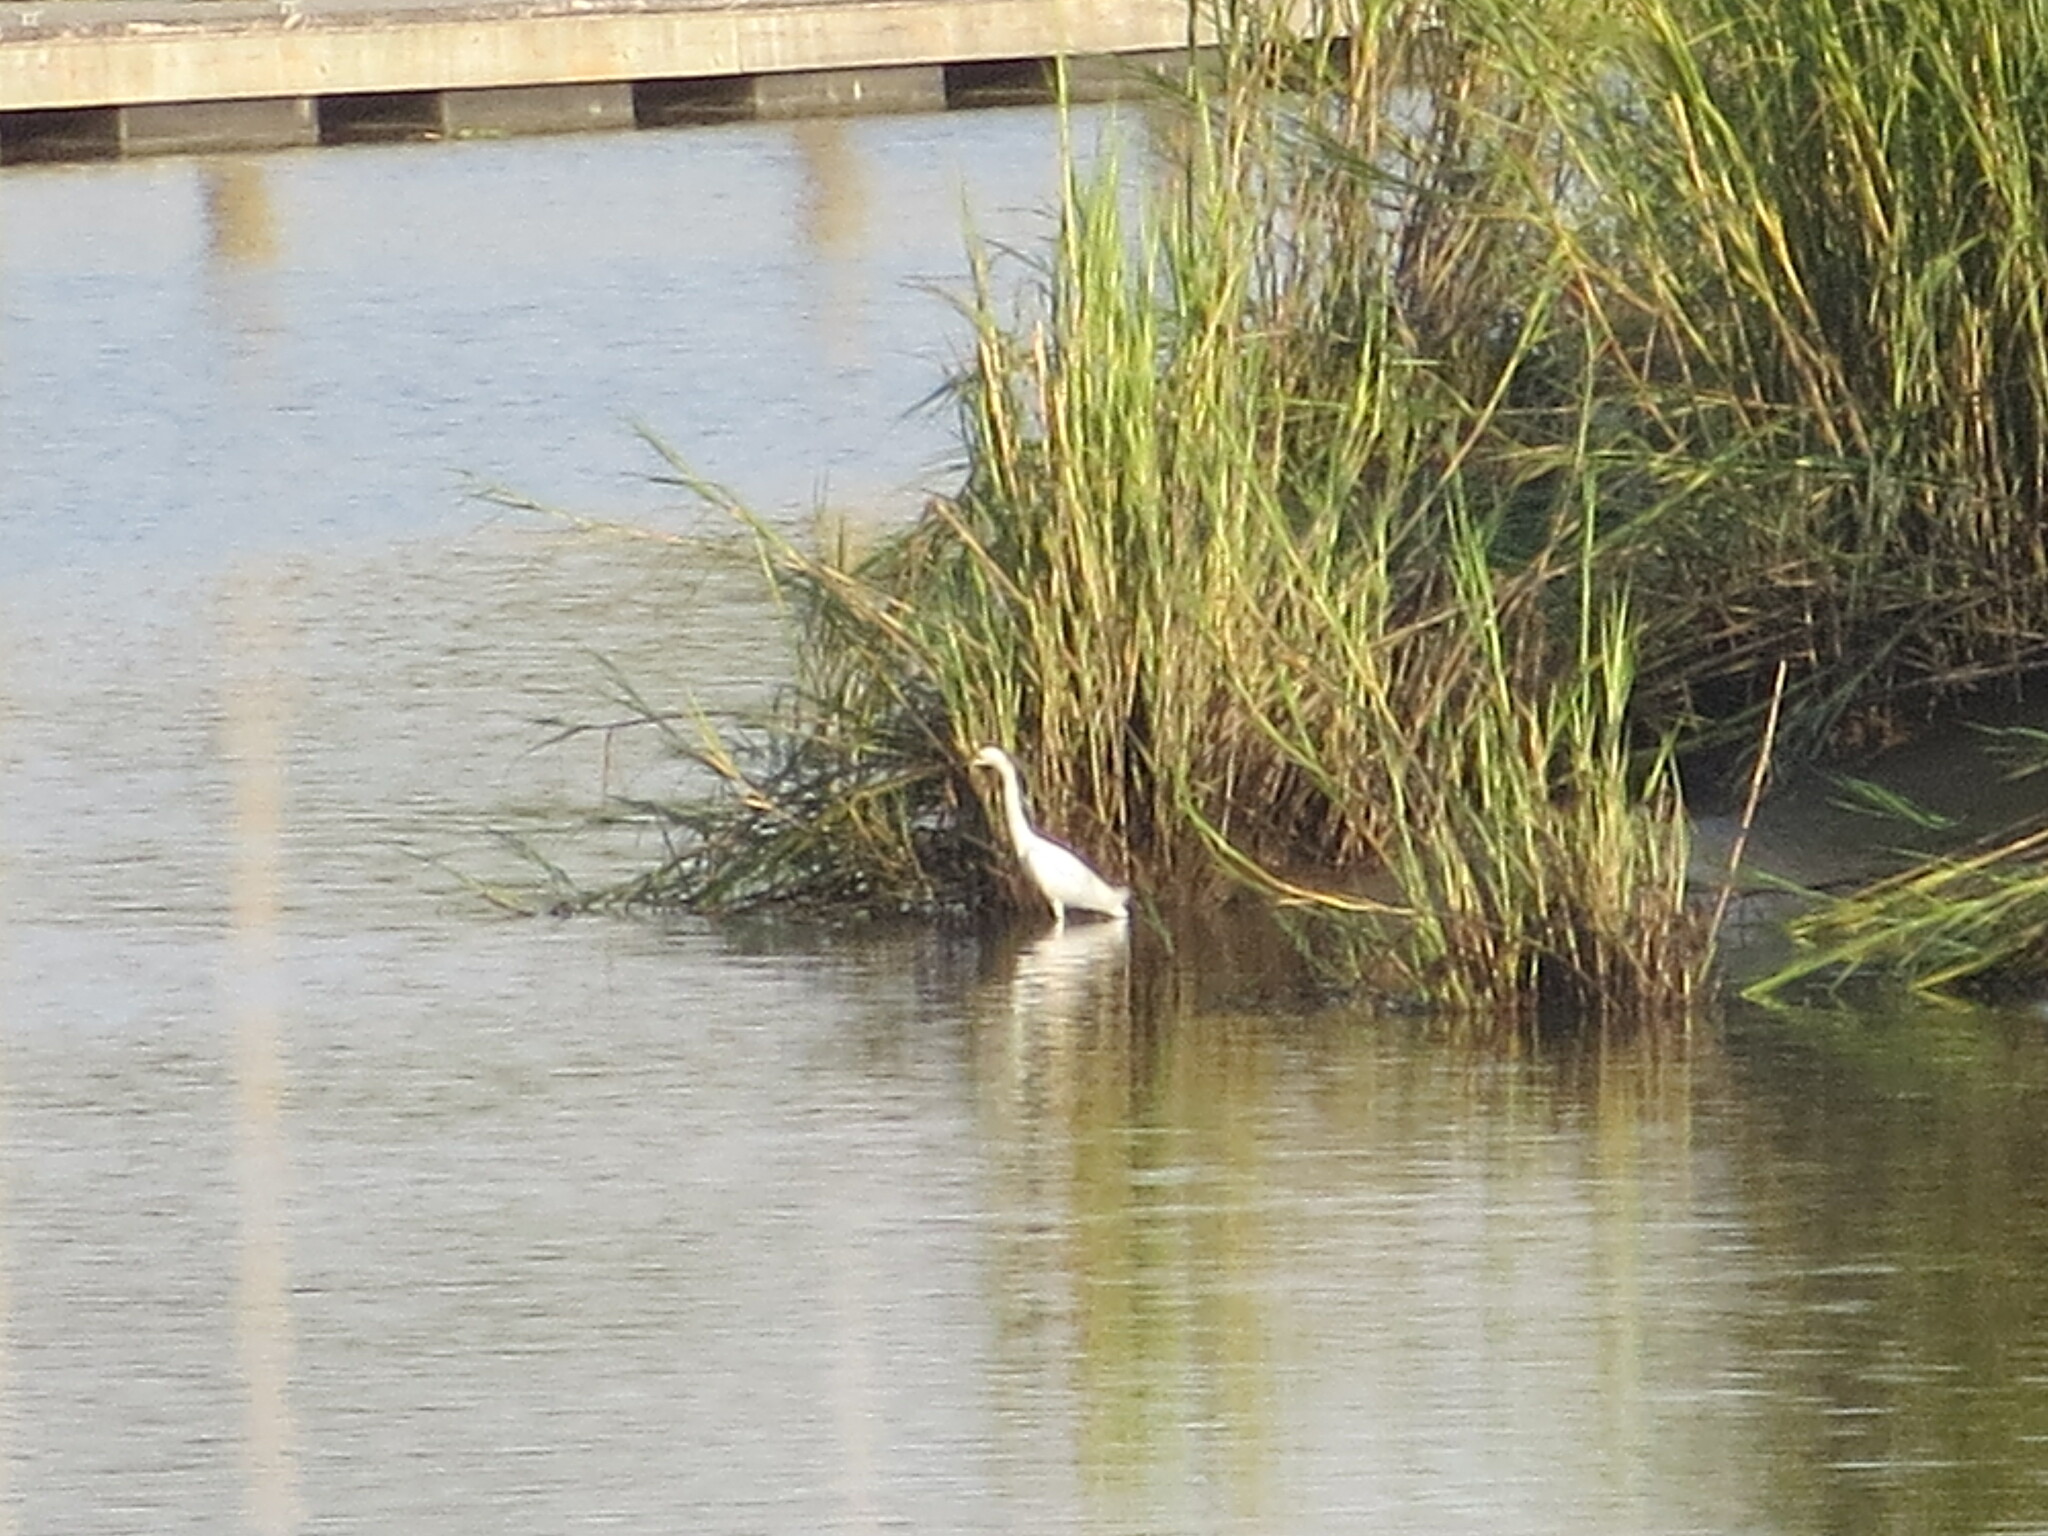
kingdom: Animalia
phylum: Chordata
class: Aves
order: Pelecaniformes
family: Ardeidae
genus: Egretta
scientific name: Egretta thula
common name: Snowy egret
